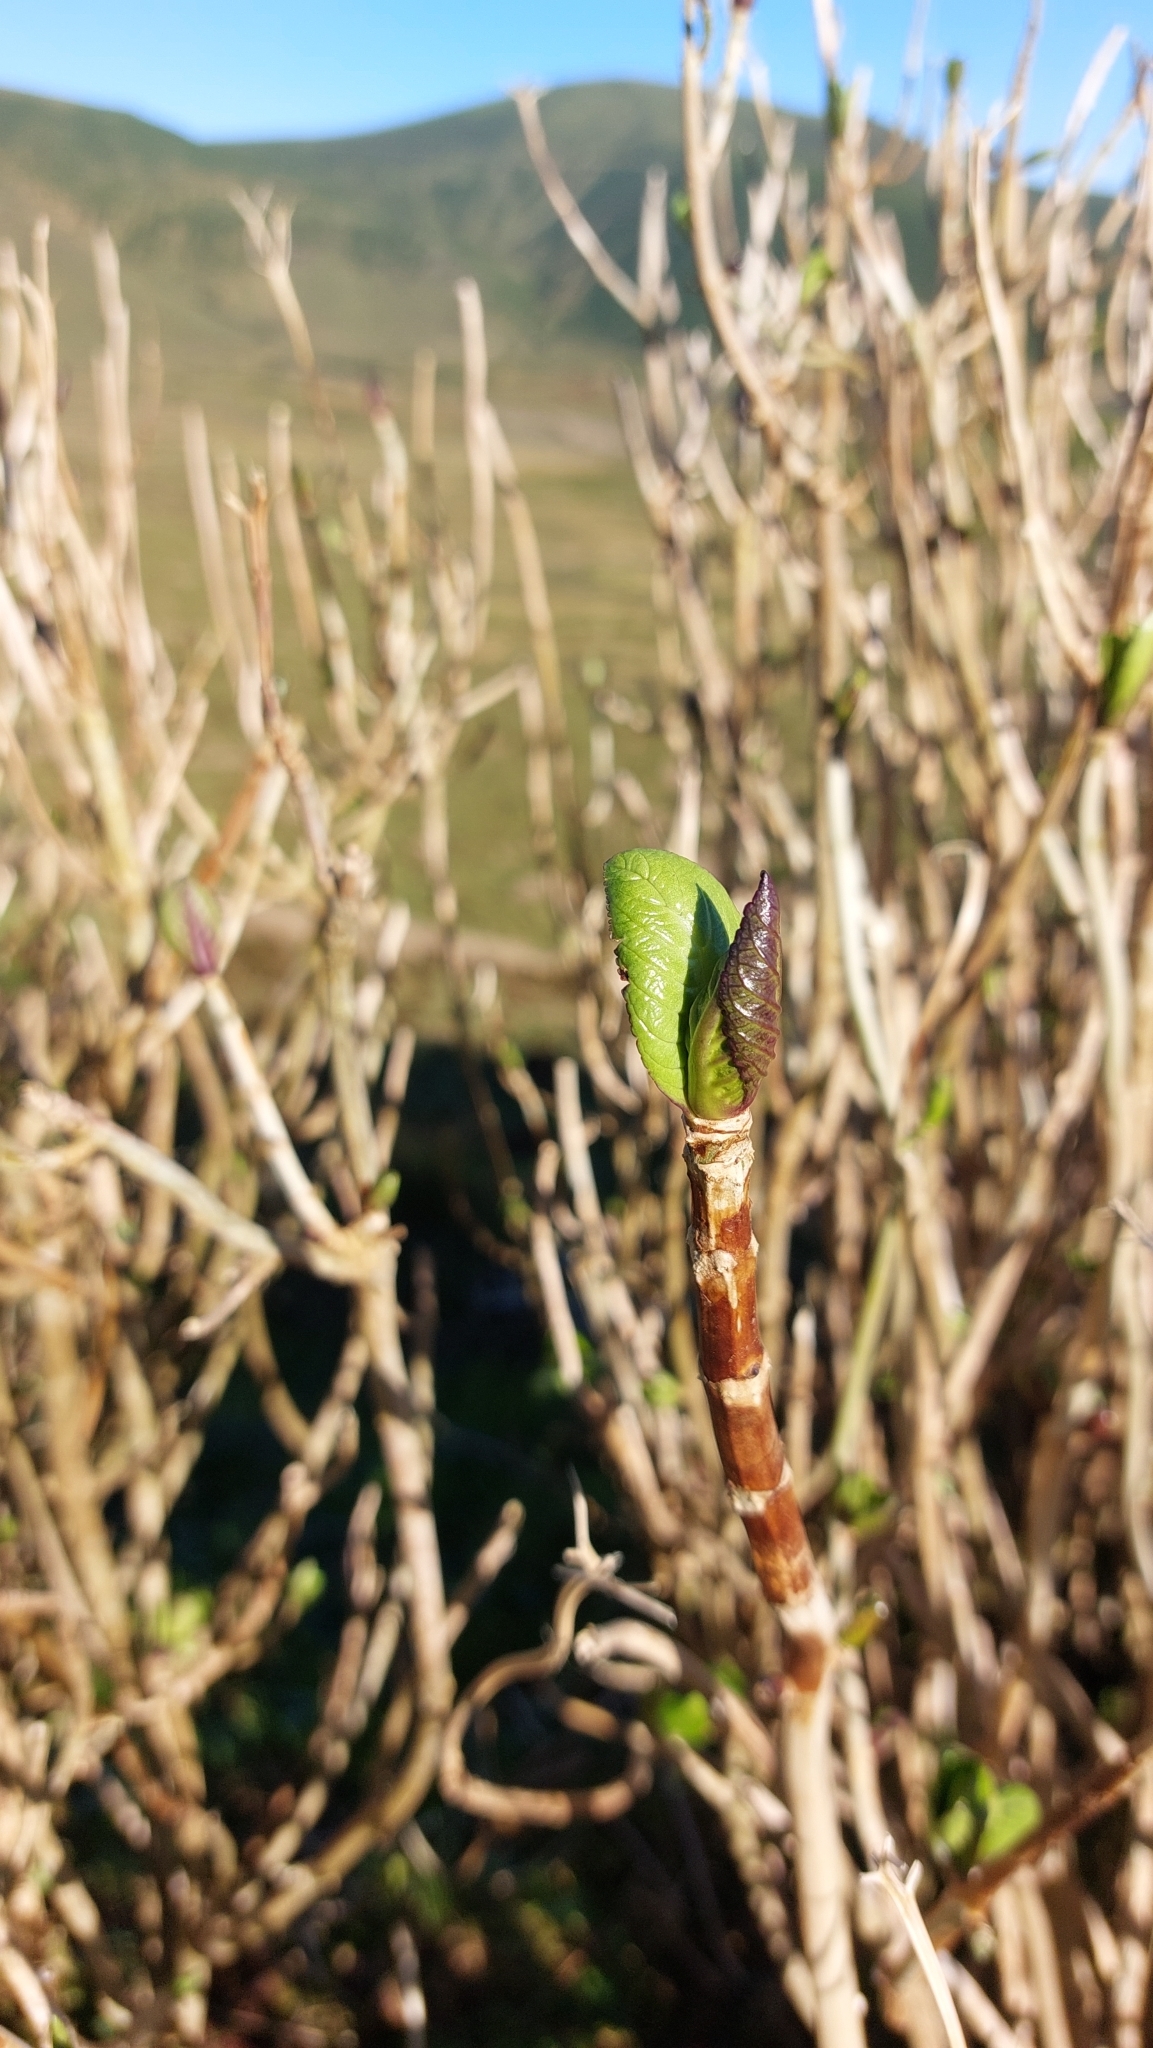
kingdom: Plantae
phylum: Tracheophyta
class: Magnoliopsida
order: Cornales
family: Hydrangeaceae
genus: Hydrangea
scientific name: Hydrangea macrophylla
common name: Hydrangea
